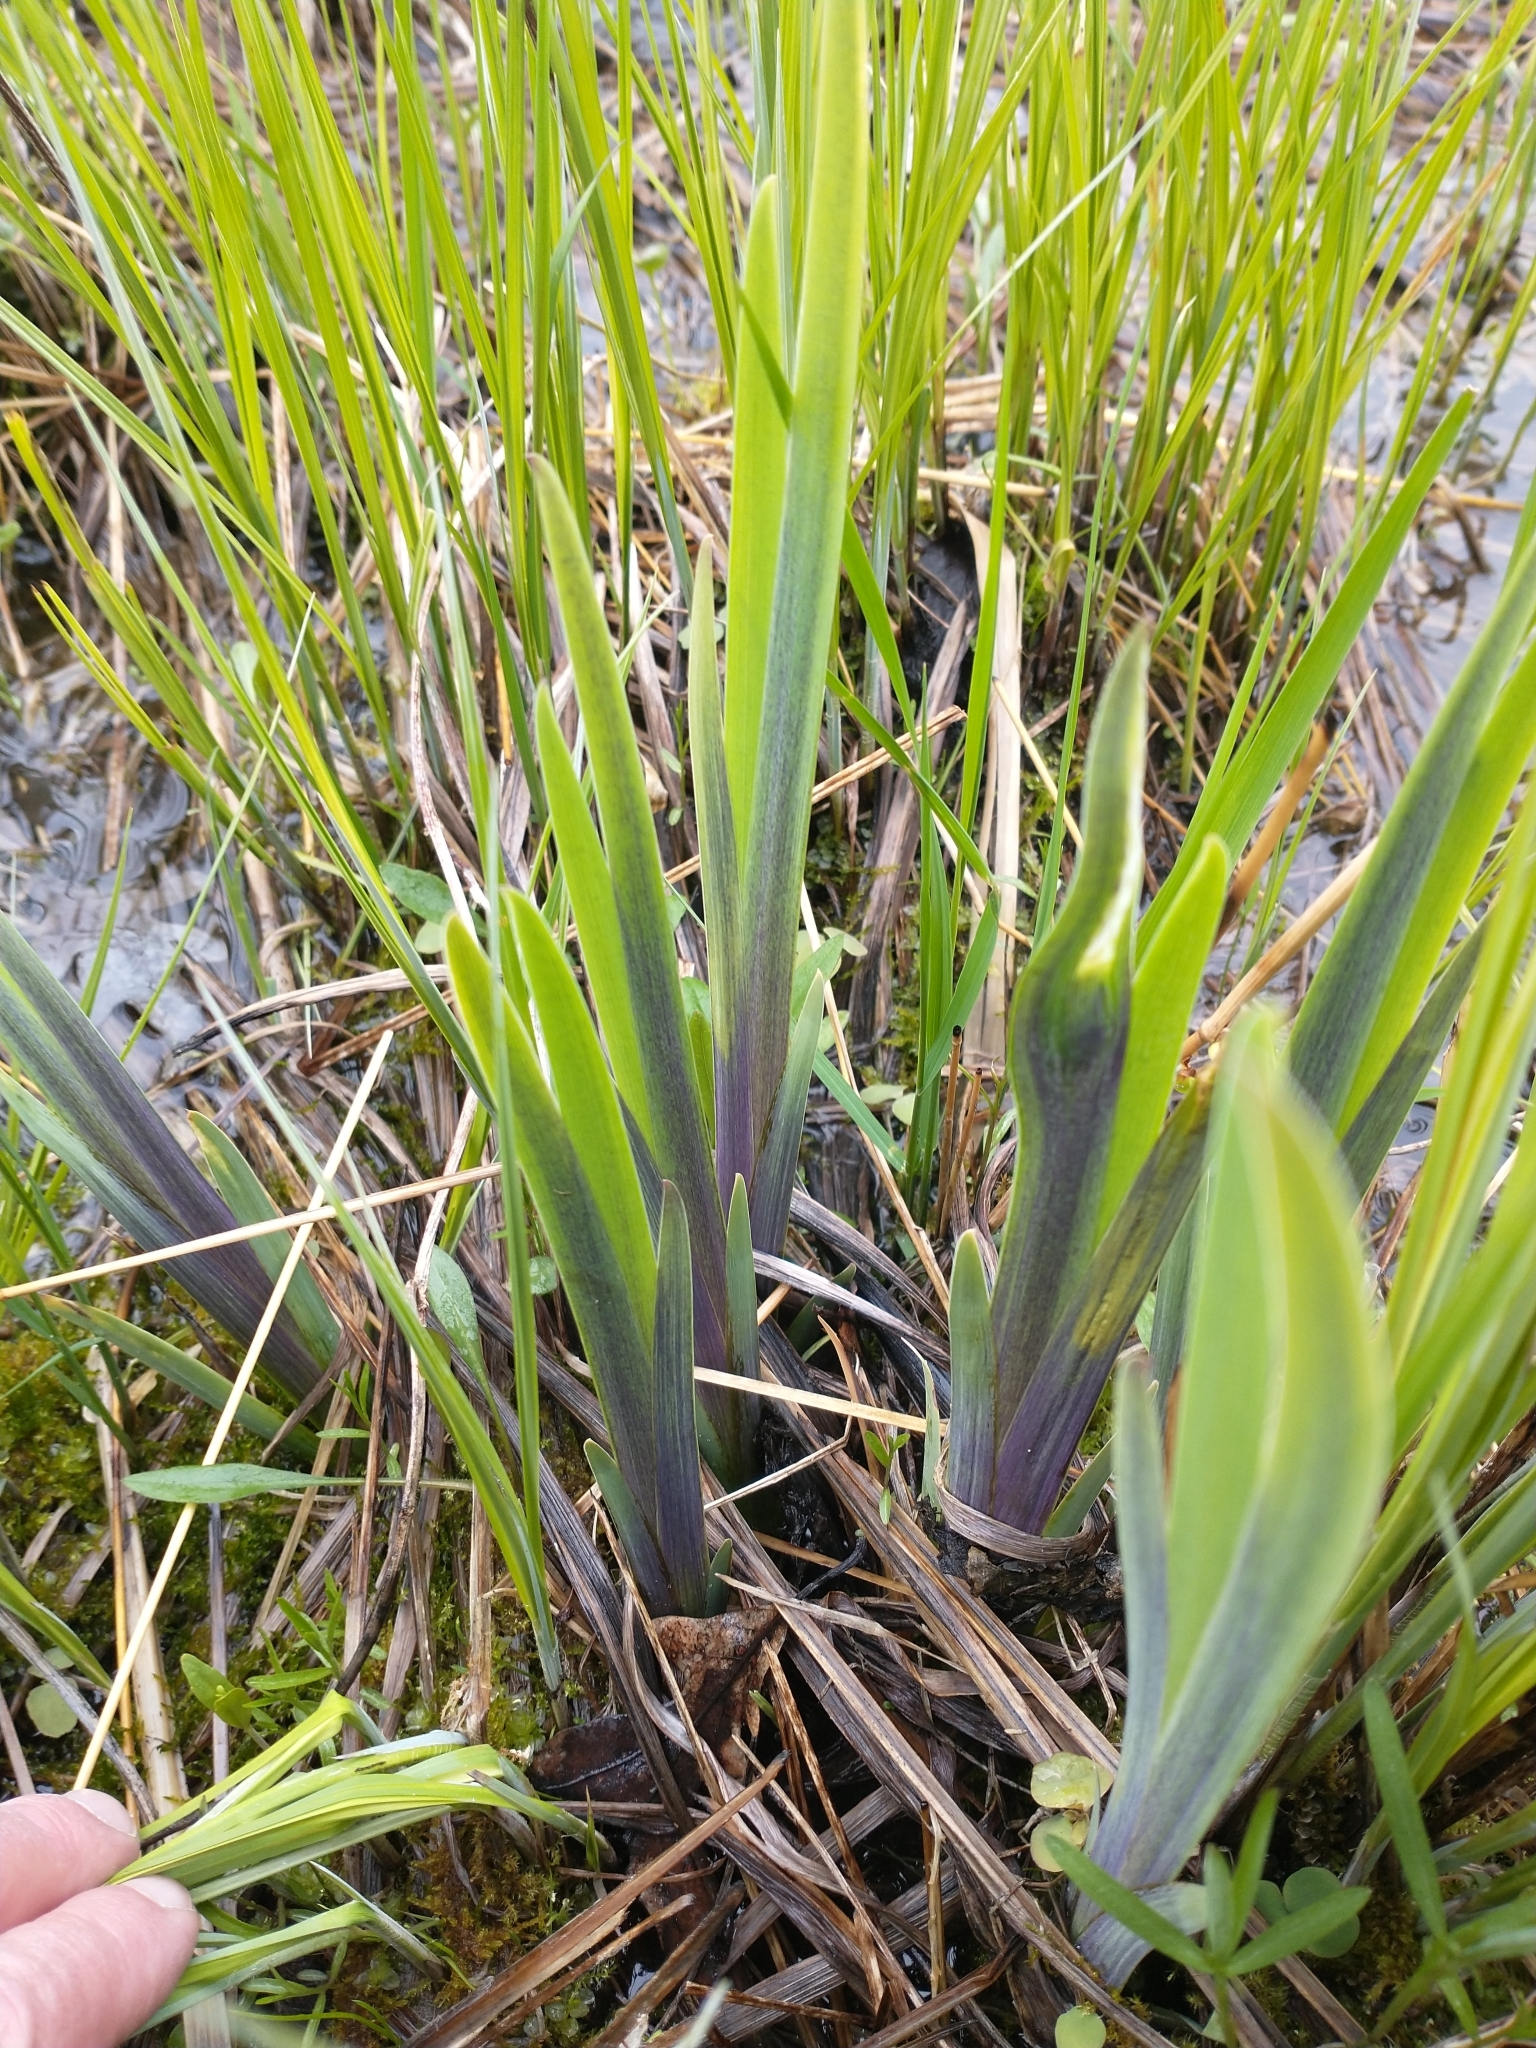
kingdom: Plantae
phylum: Tracheophyta
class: Liliopsida
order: Asparagales
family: Iridaceae
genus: Iris
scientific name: Iris virginica
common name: Southern blue flag
